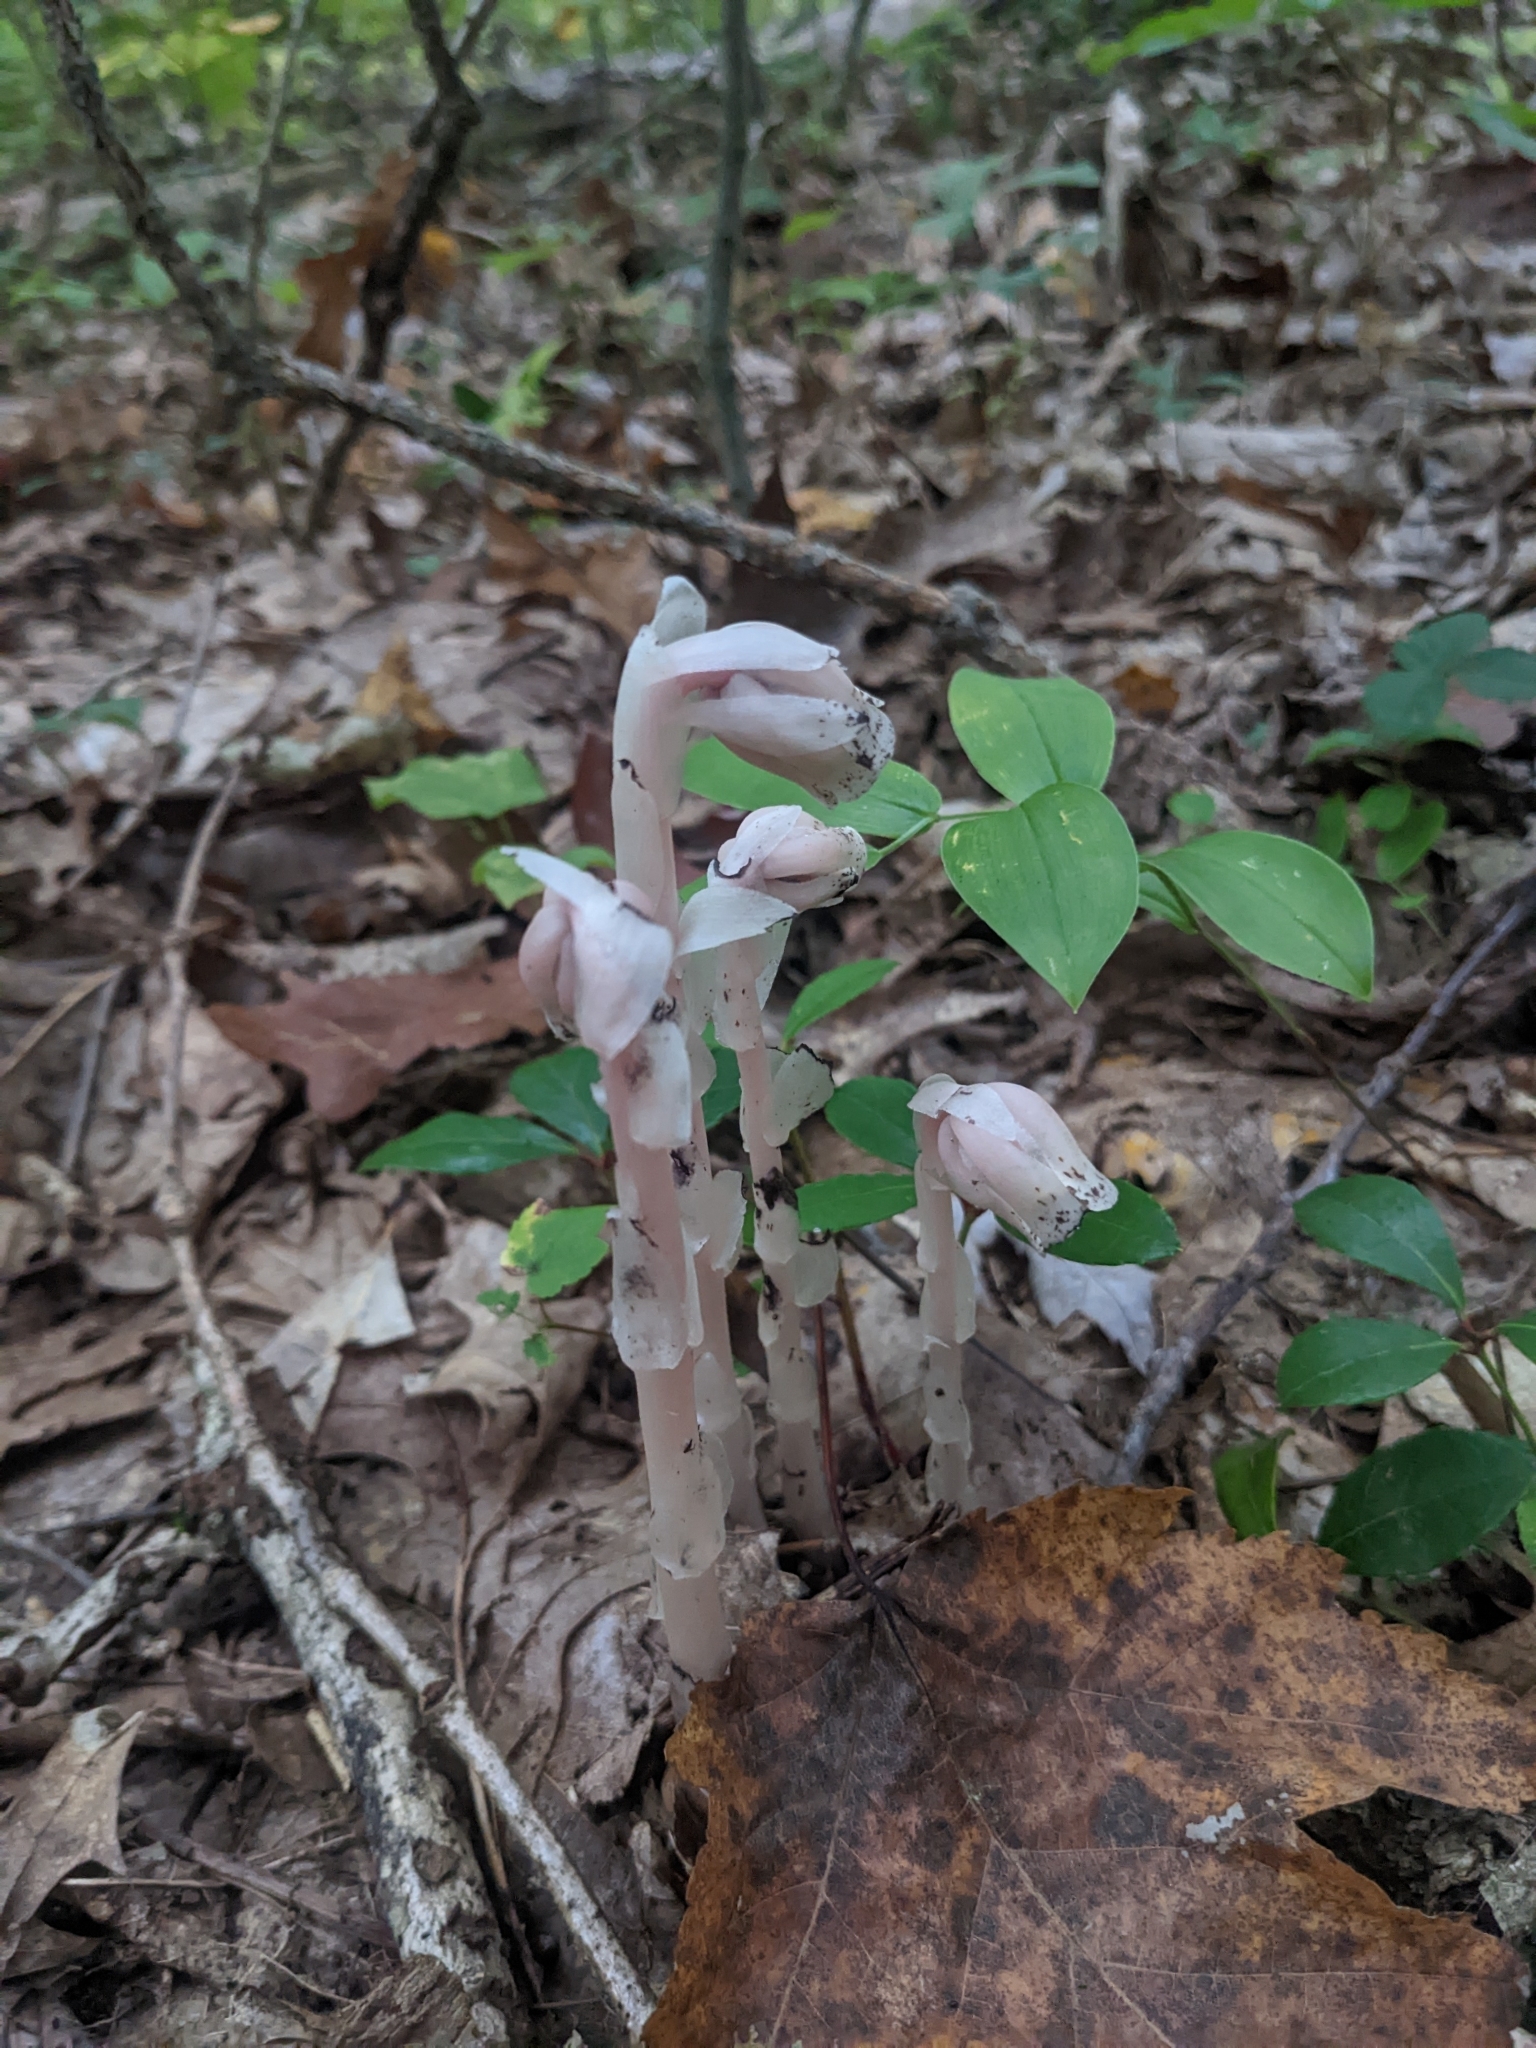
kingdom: Plantae
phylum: Tracheophyta
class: Magnoliopsida
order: Ericales
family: Ericaceae
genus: Monotropa
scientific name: Monotropa uniflora
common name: Convulsion root
